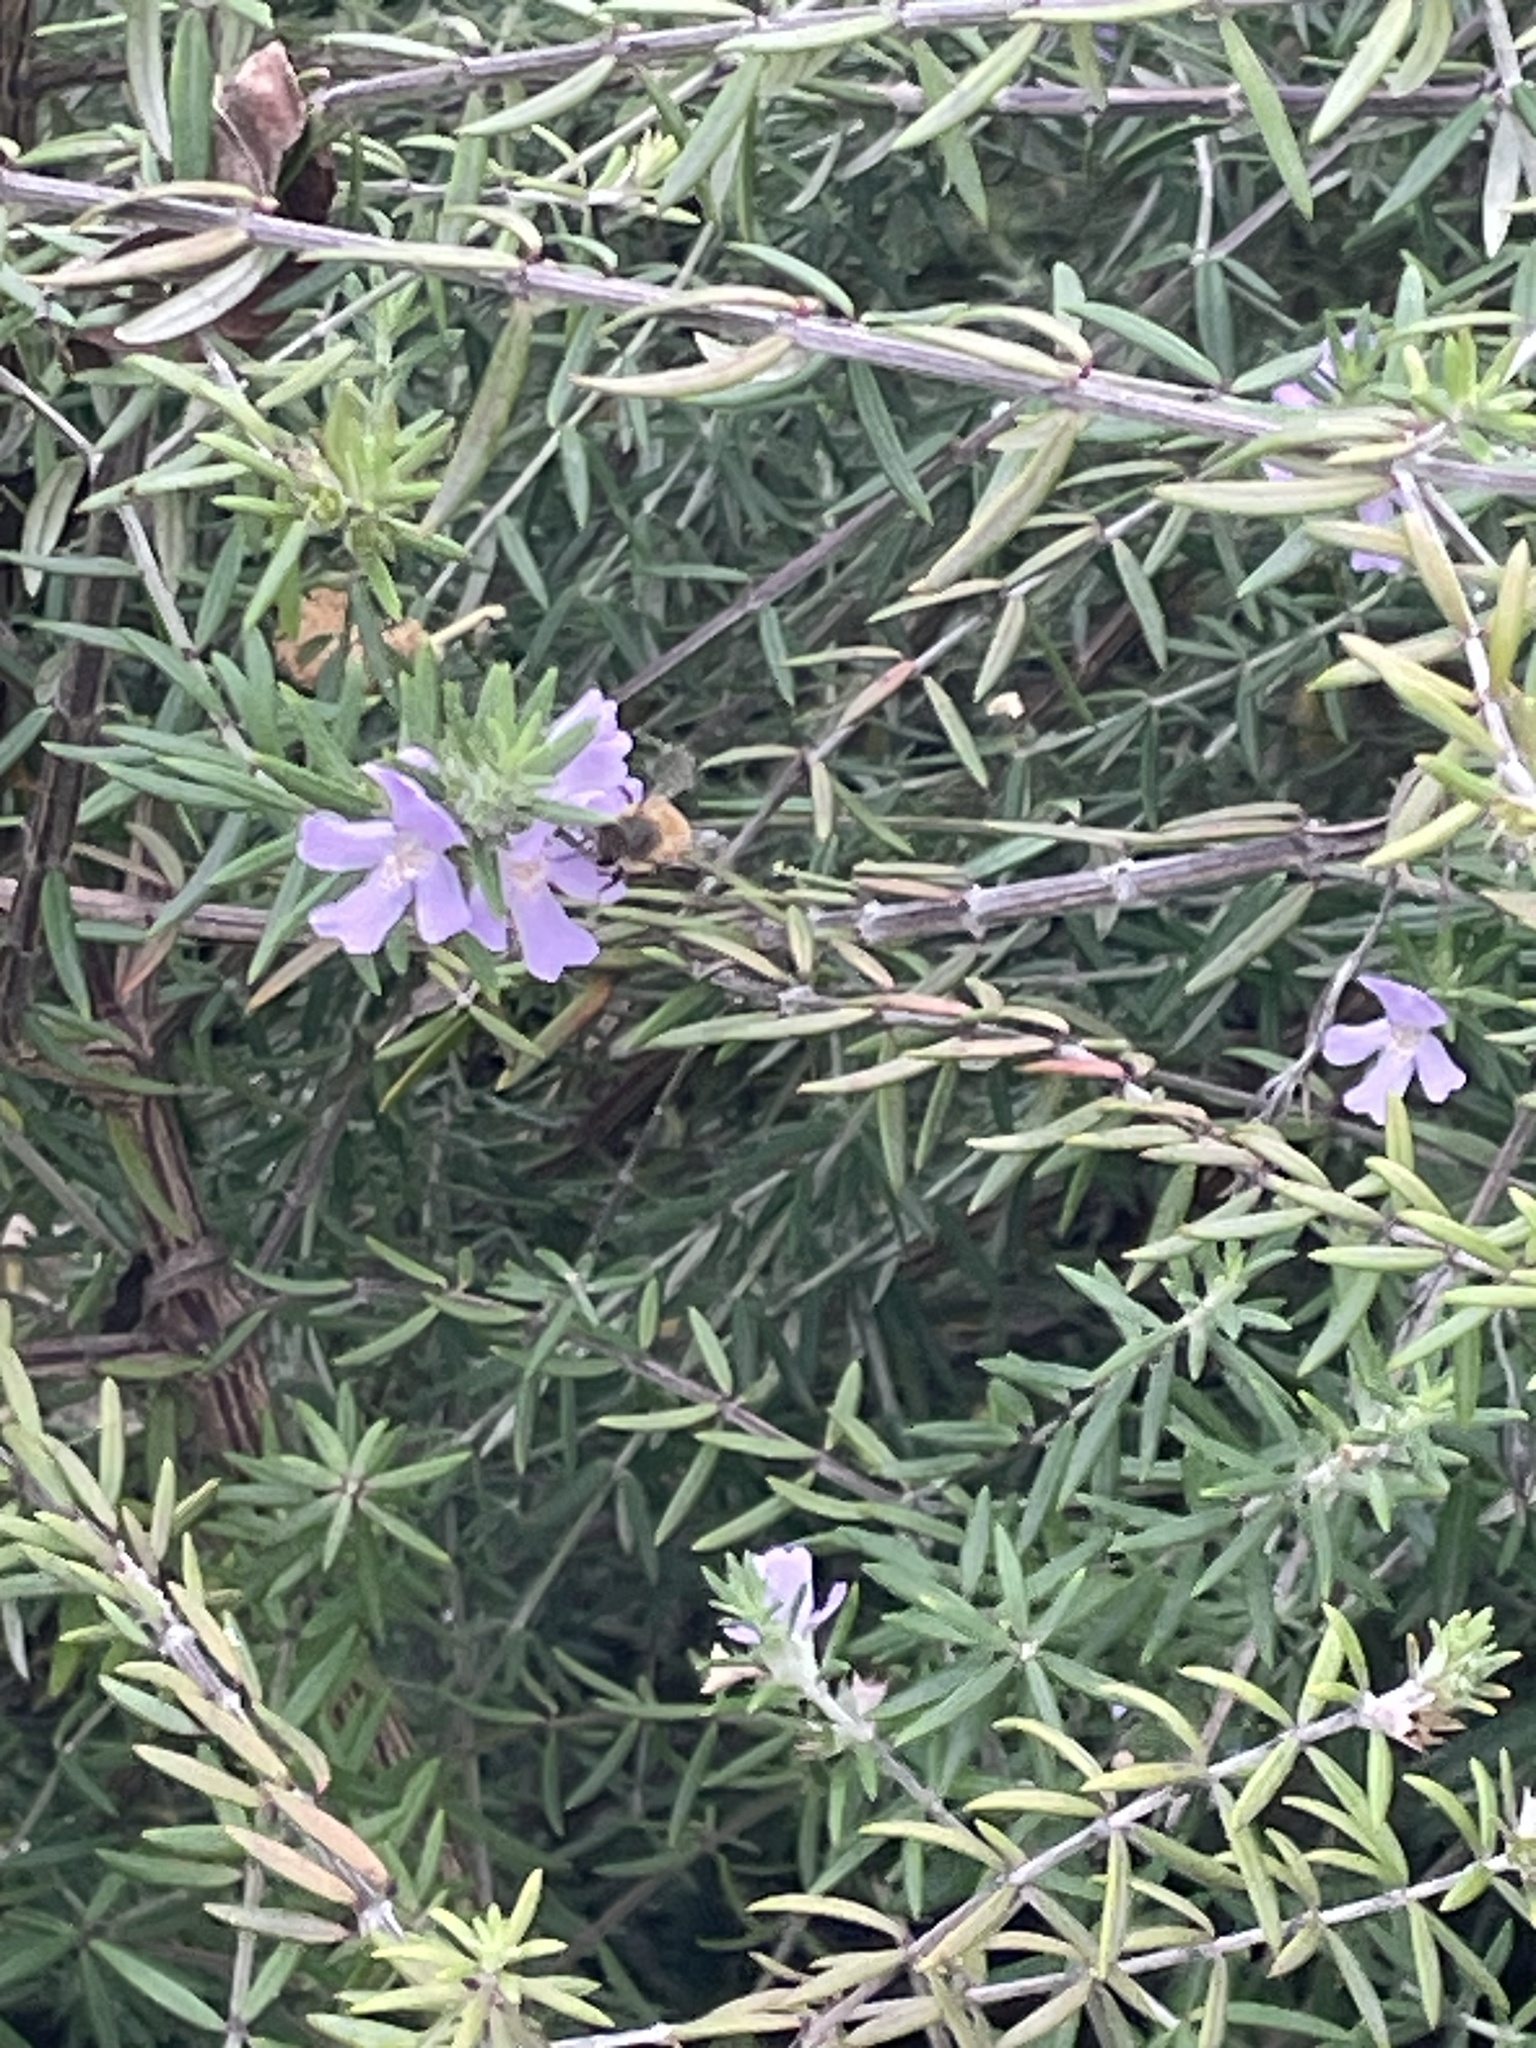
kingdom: Animalia
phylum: Arthropoda
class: Insecta
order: Hymenoptera
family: Apidae
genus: Apis
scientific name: Apis mellifera
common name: Honey bee
